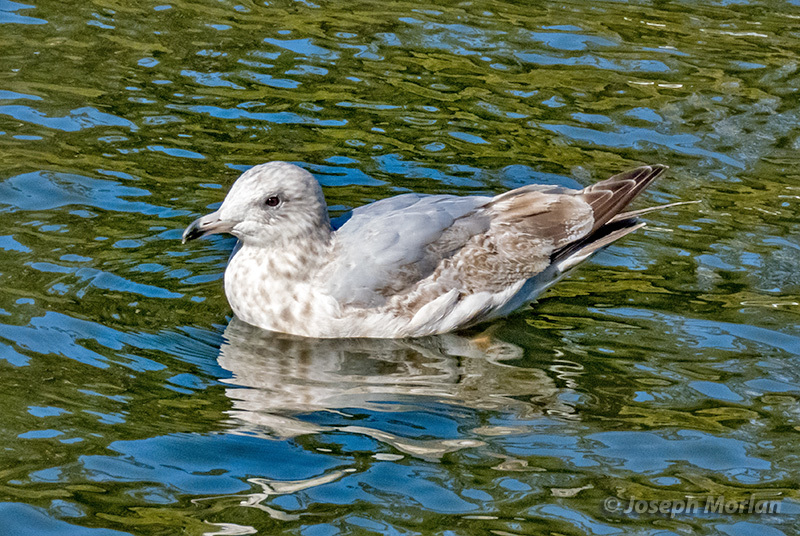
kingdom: Animalia
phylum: Chordata
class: Aves
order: Charadriiformes
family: Laridae
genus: Larus
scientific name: Larus argentatus
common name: Herring gull
